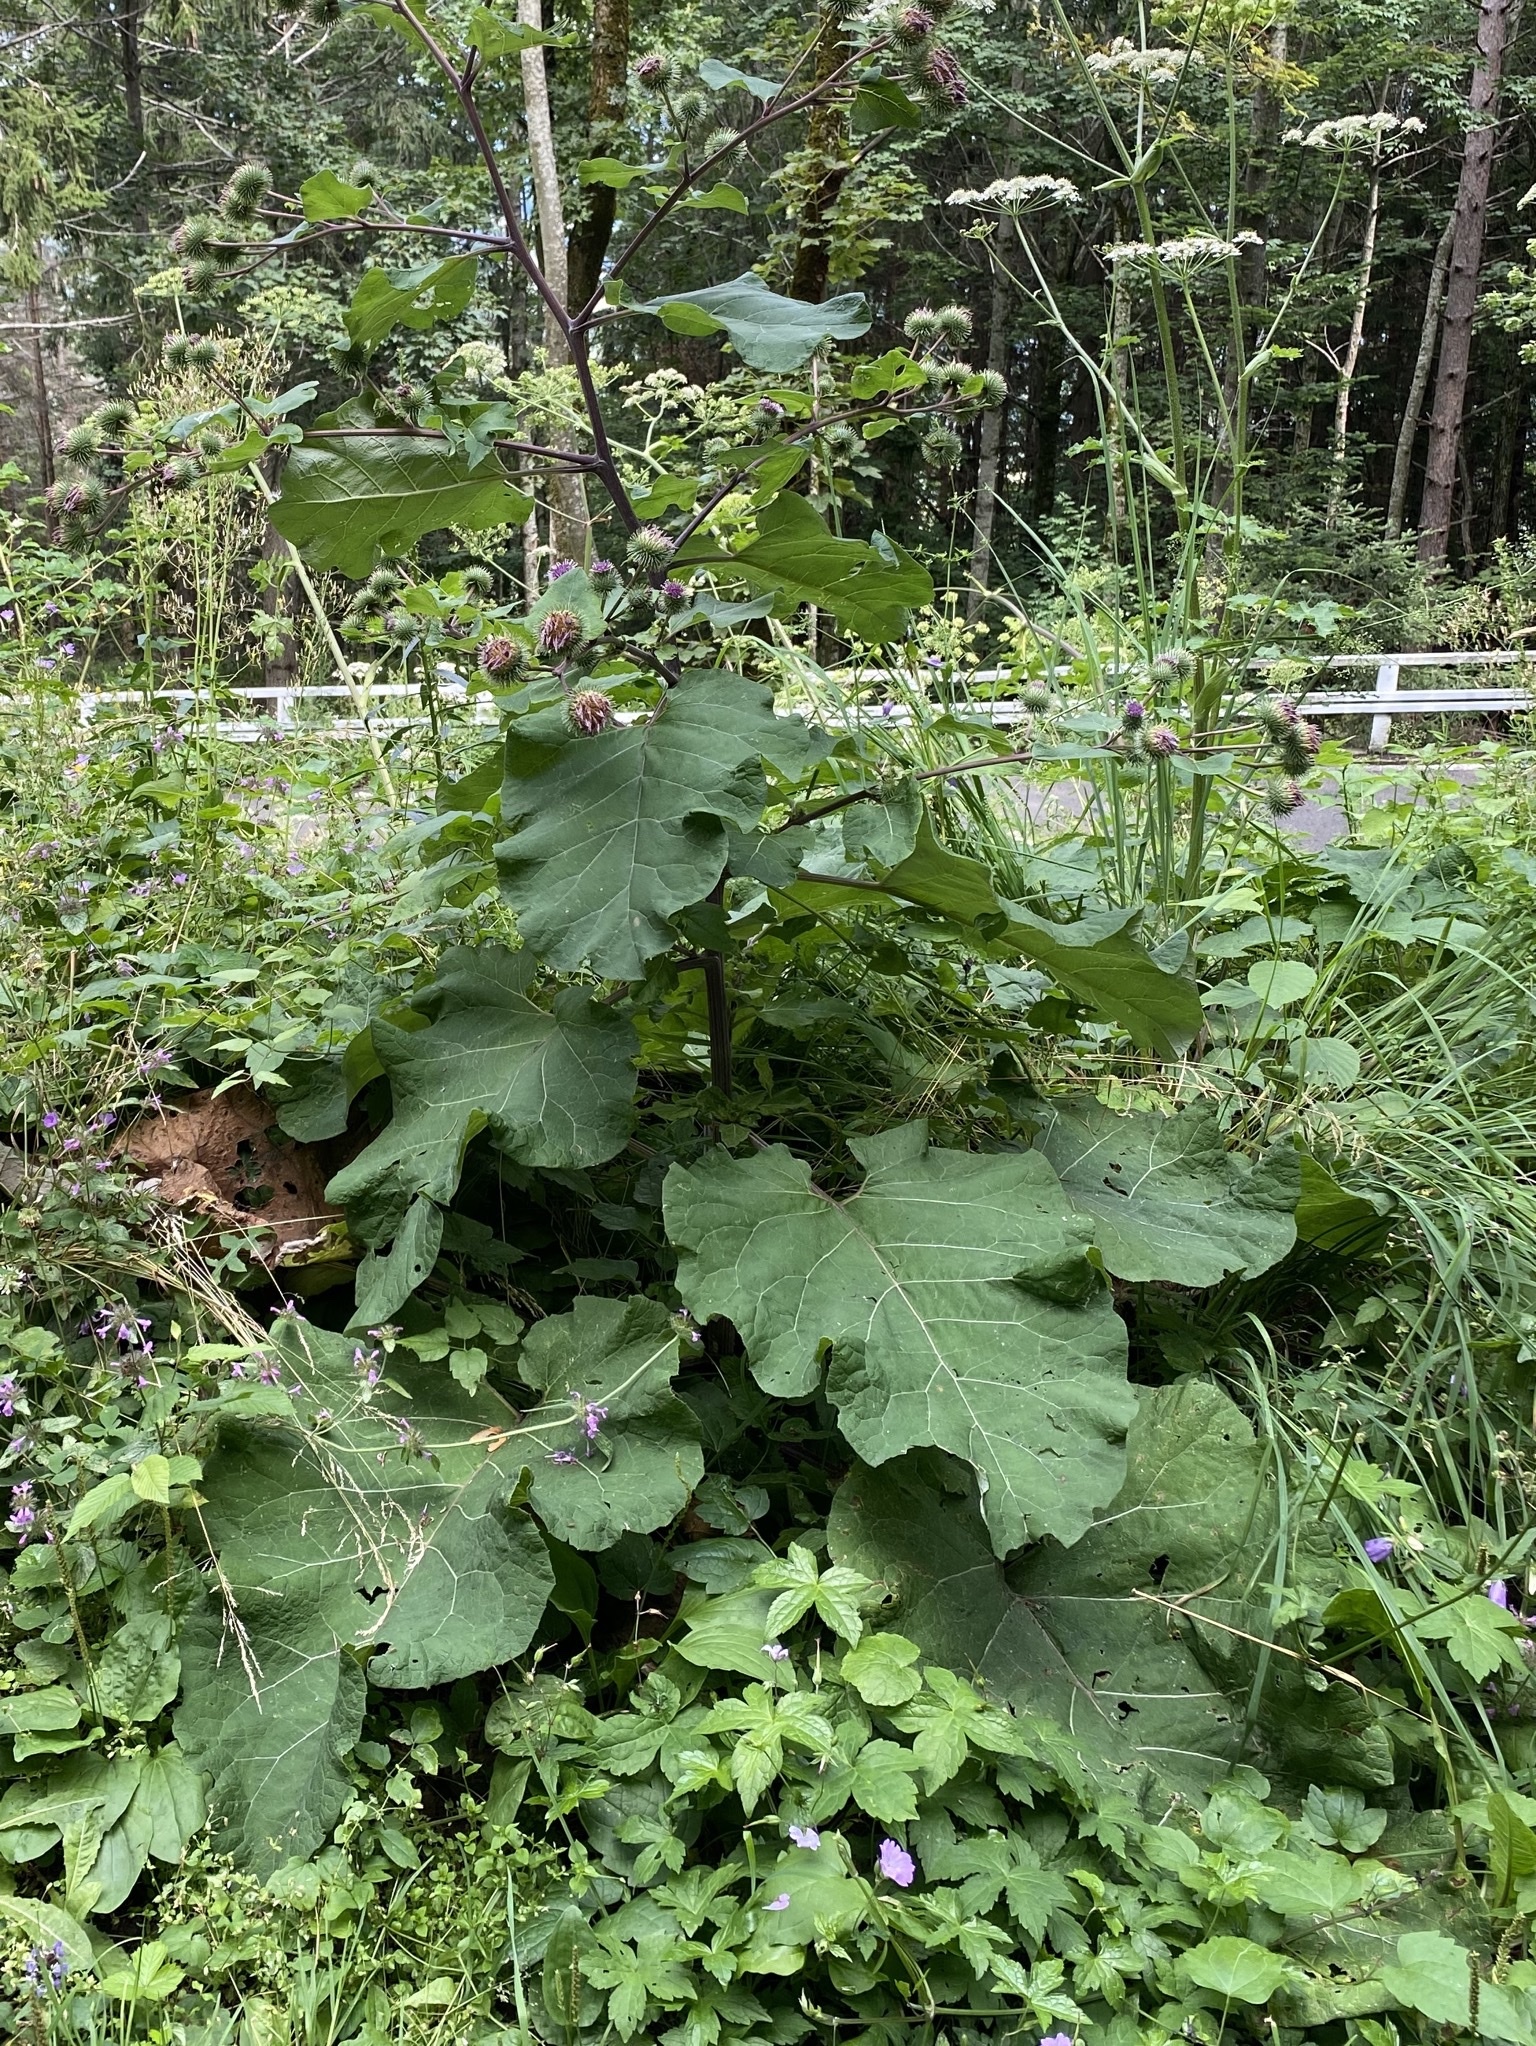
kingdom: Plantae
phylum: Tracheophyta
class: Magnoliopsida
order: Asterales
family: Asteraceae
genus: Arctium
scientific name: Arctium lappa
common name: Greater burdock
